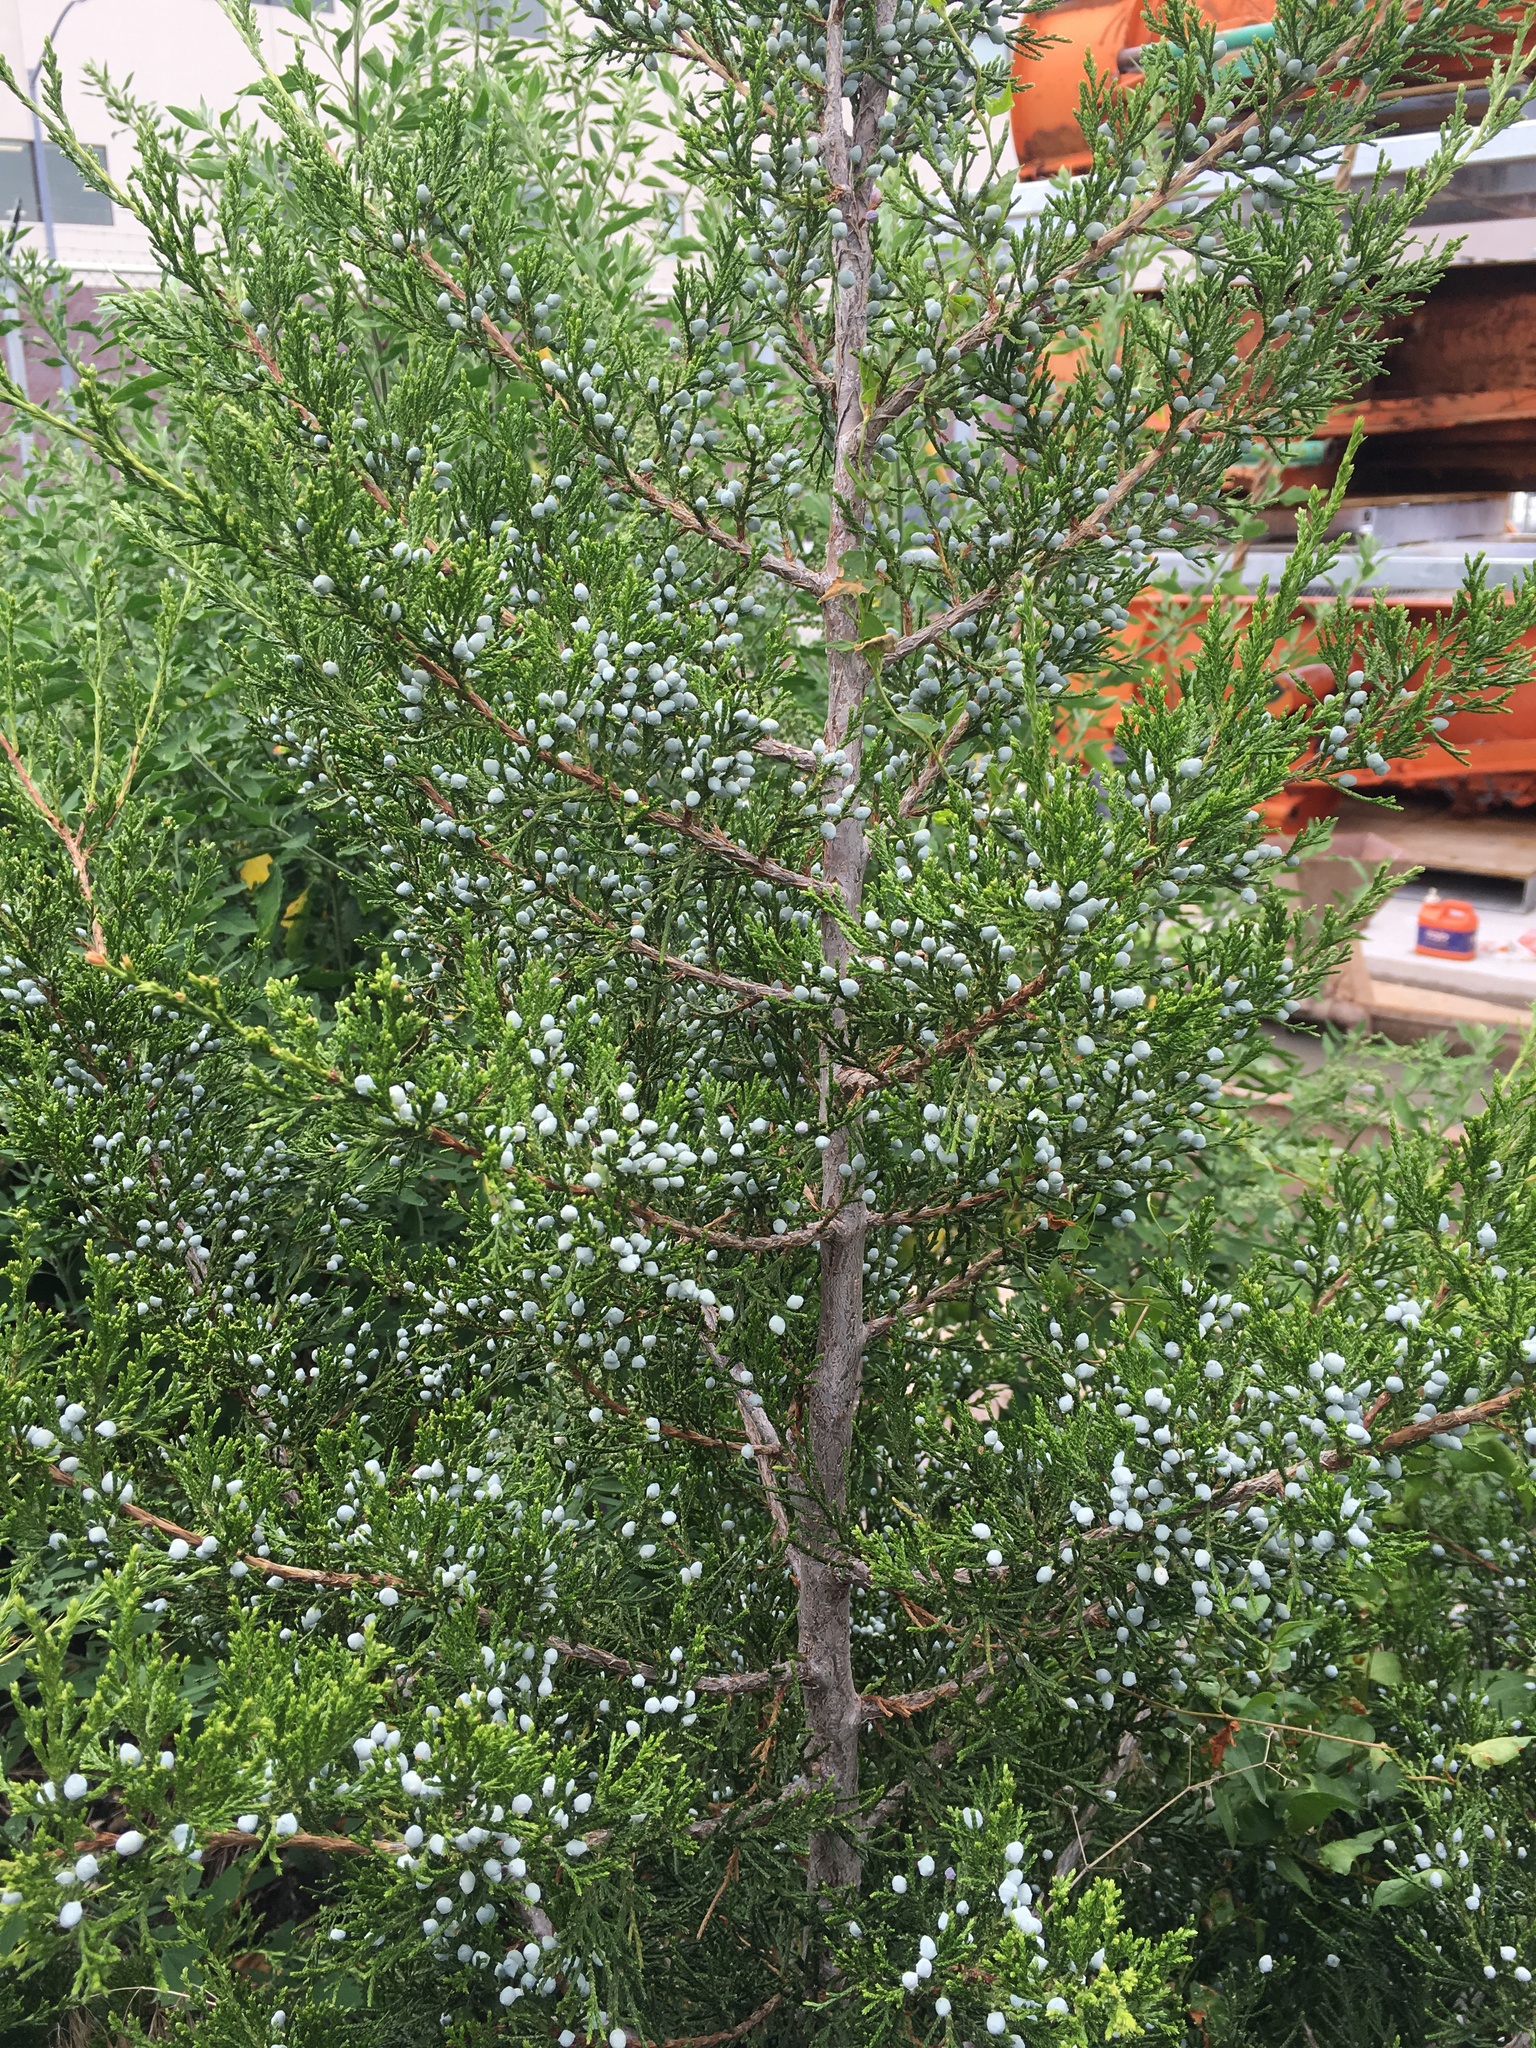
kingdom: Plantae
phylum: Tracheophyta
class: Pinopsida
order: Pinales
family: Cupressaceae
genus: Juniperus
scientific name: Juniperus virginiana
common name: Red juniper
